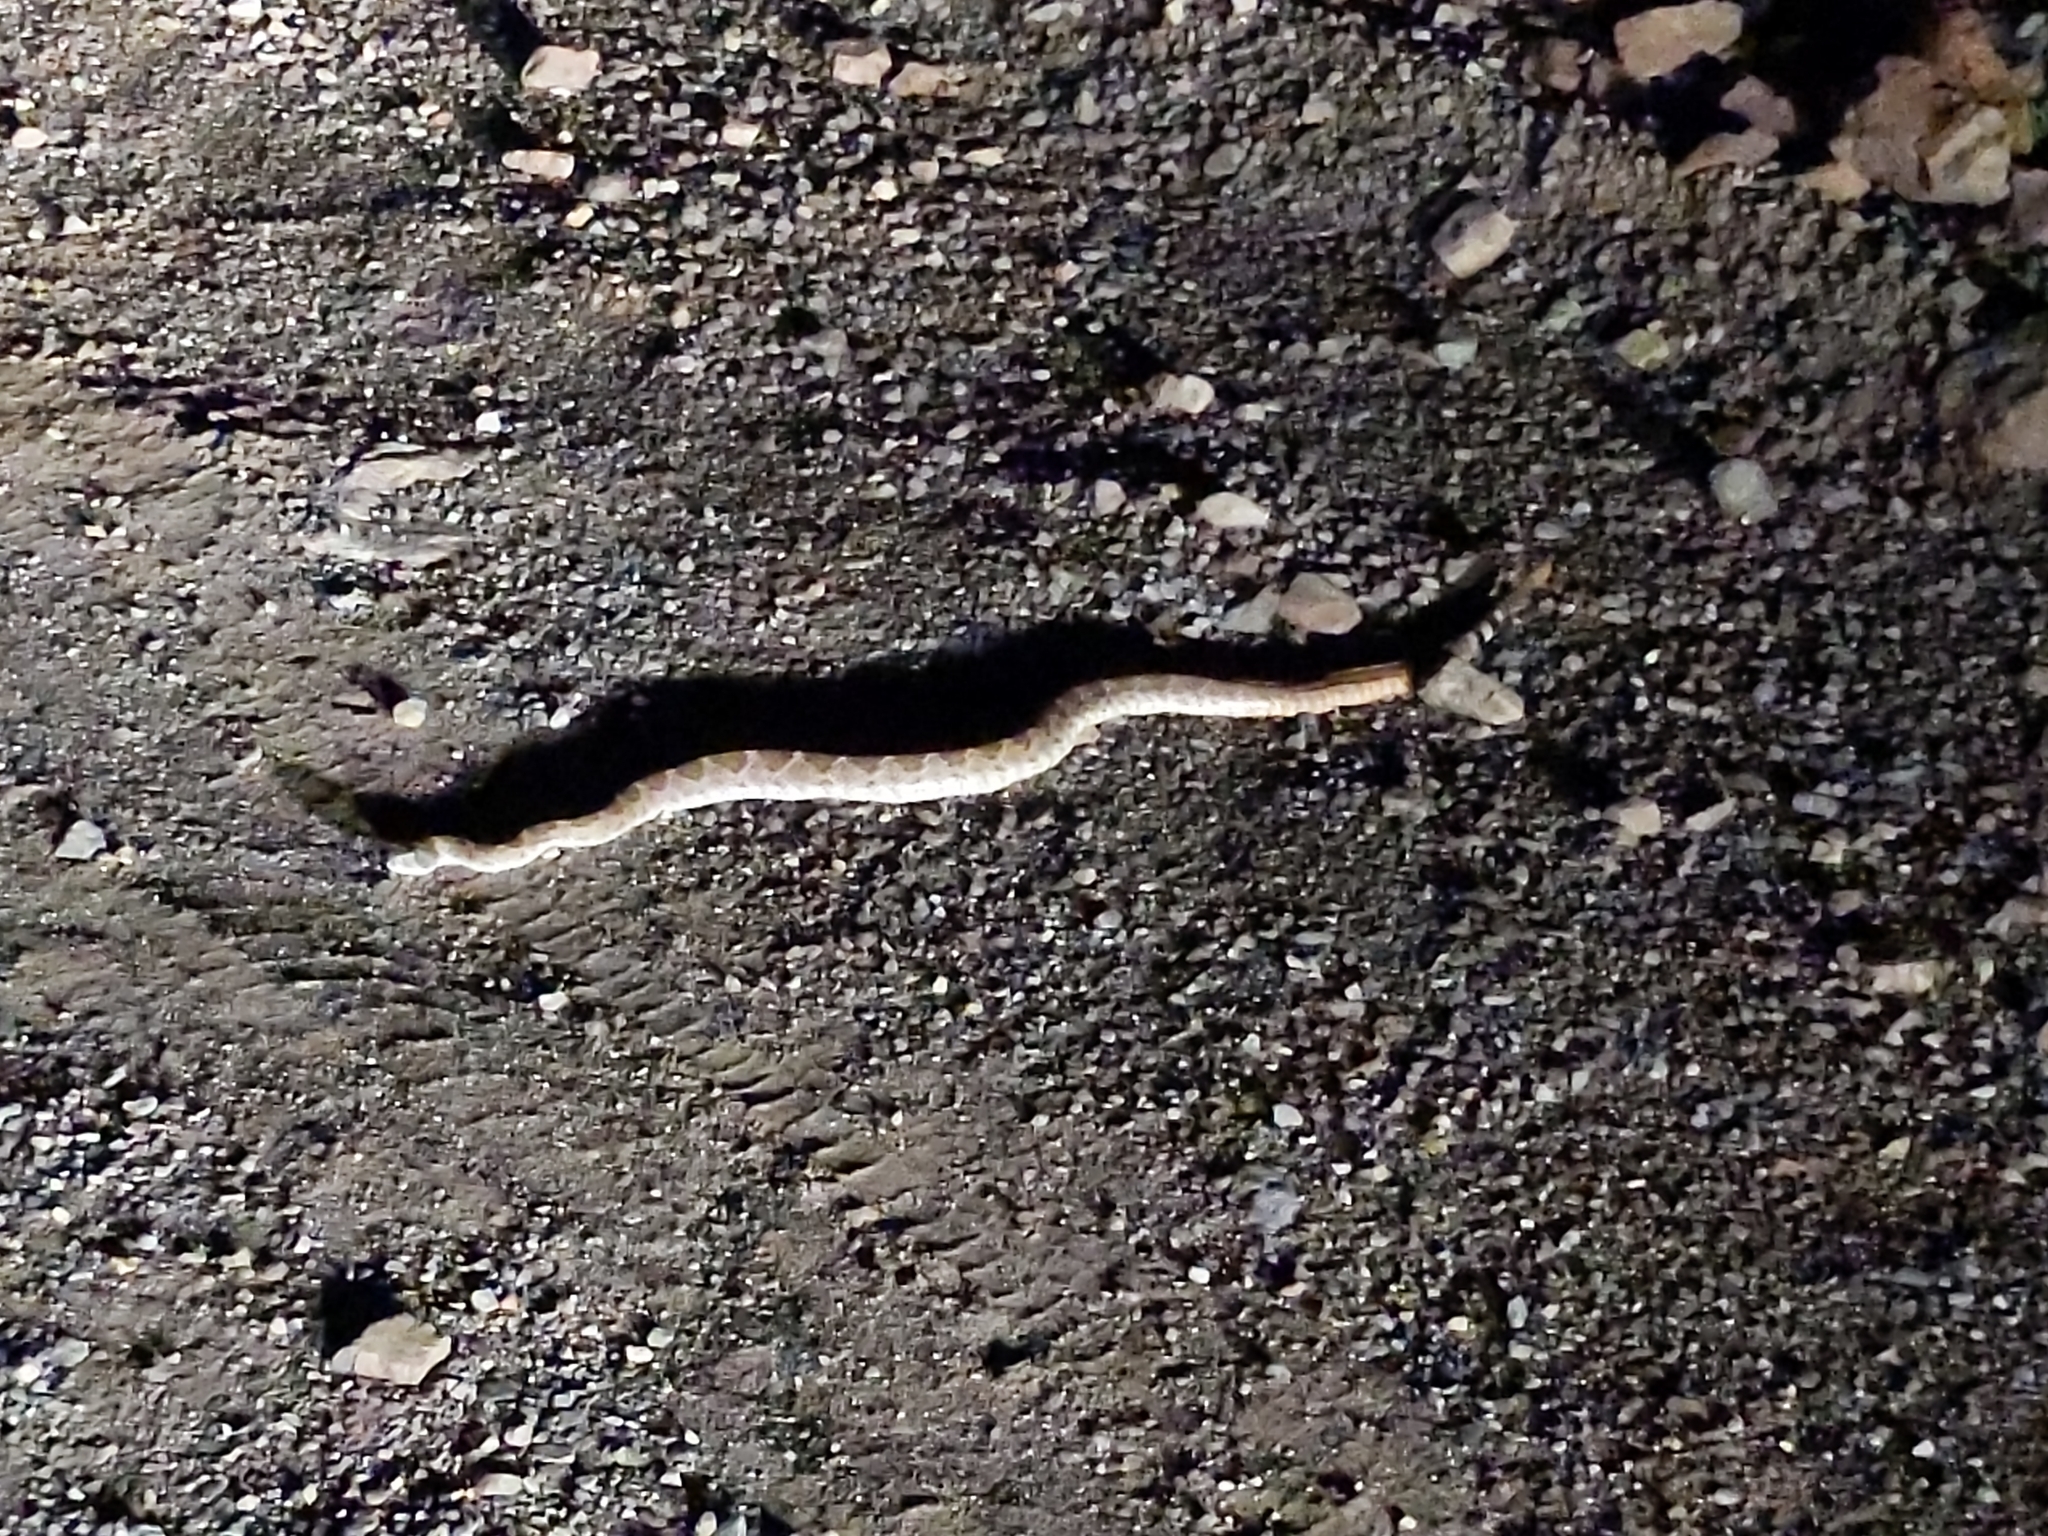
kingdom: Animalia
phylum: Chordata
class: Squamata
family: Viperidae
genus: Crotalus
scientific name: Crotalus atrox
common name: Western diamond-backed rattlesnake
